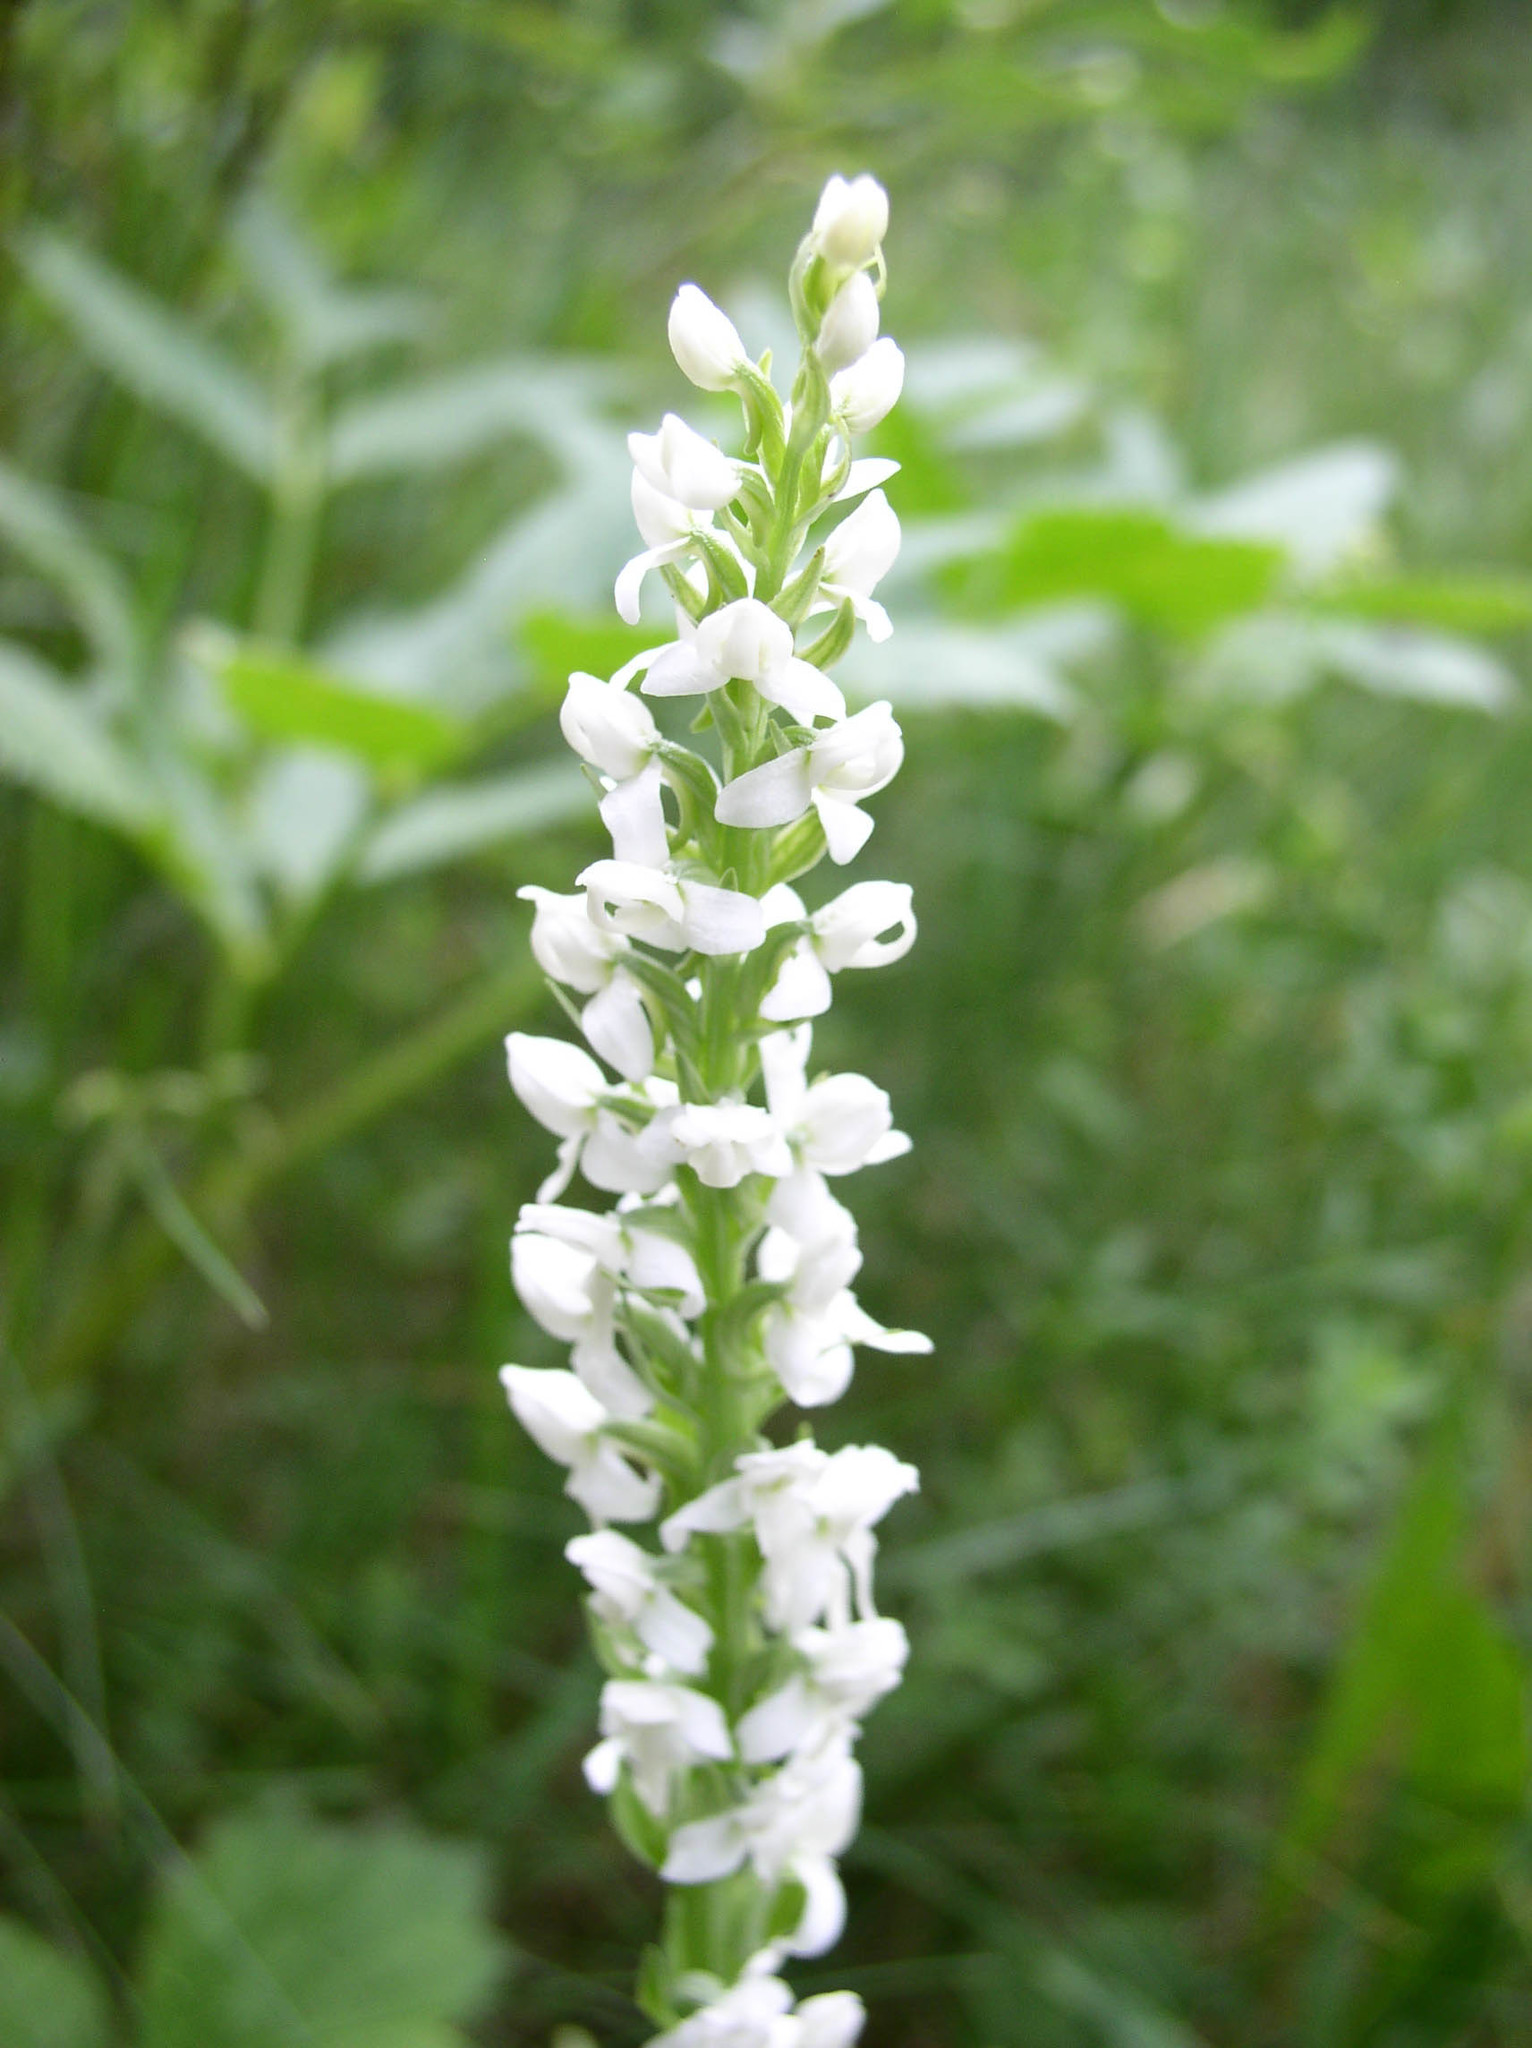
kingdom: Plantae
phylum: Tracheophyta
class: Liliopsida
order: Asparagales
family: Orchidaceae
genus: Platanthera
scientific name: Platanthera dilatata
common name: Bog candles
